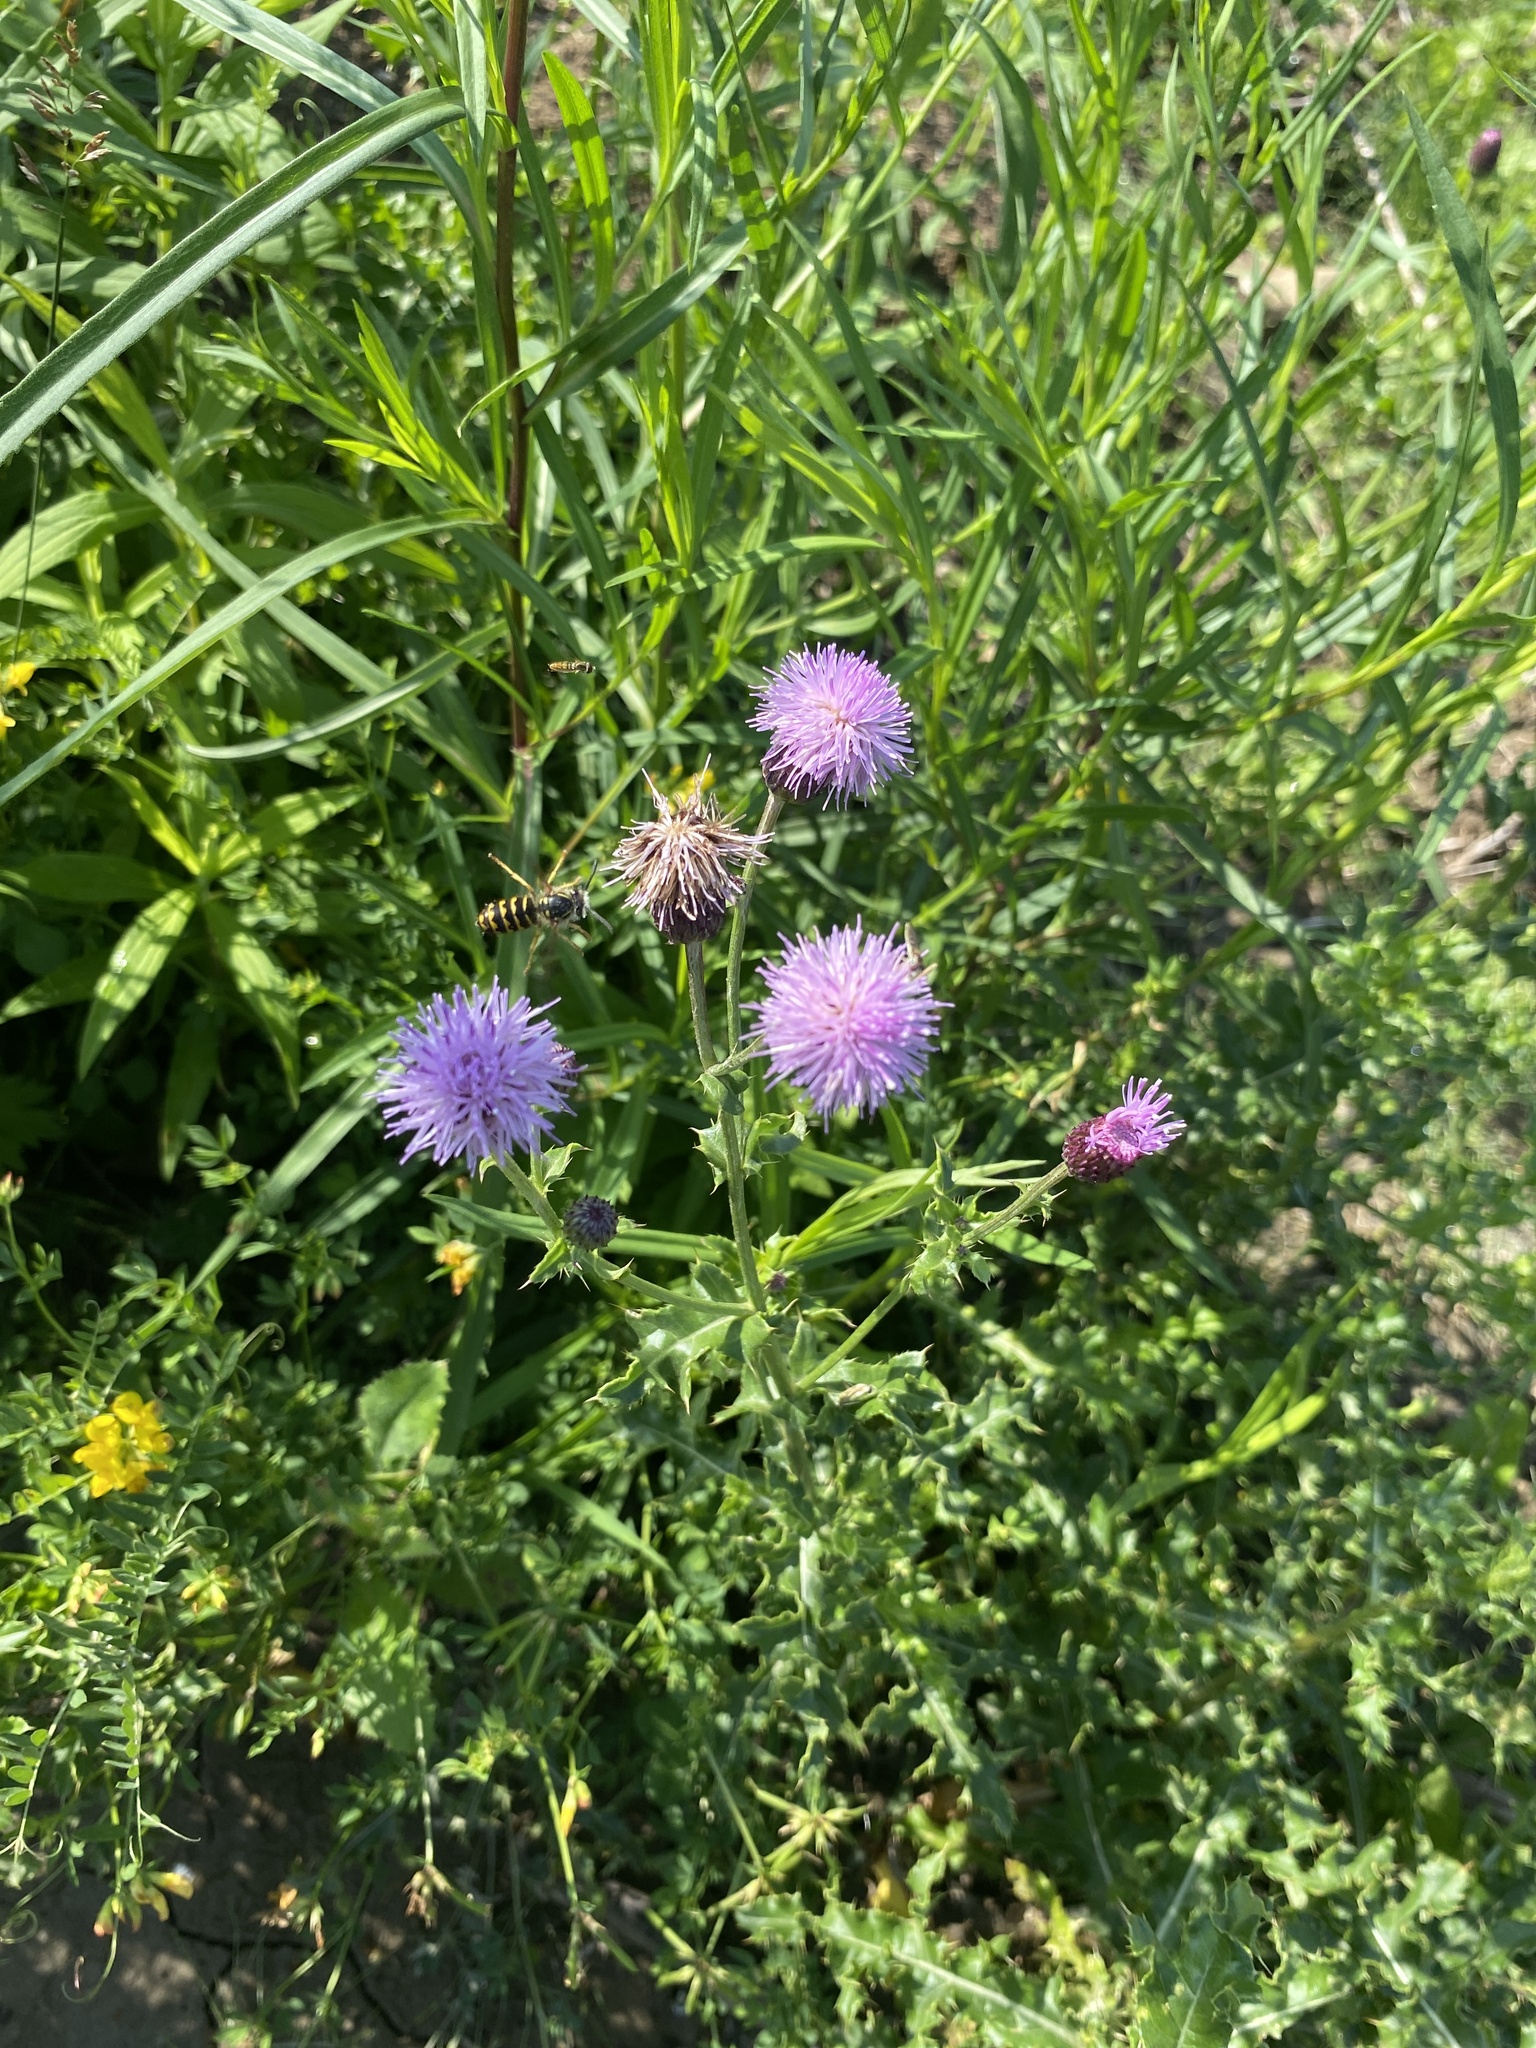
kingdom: Plantae
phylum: Tracheophyta
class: Magnoliopsida
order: Asterales
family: Asteraceae
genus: Cirsium
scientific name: Cirsium arvense
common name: Creeping thistle
